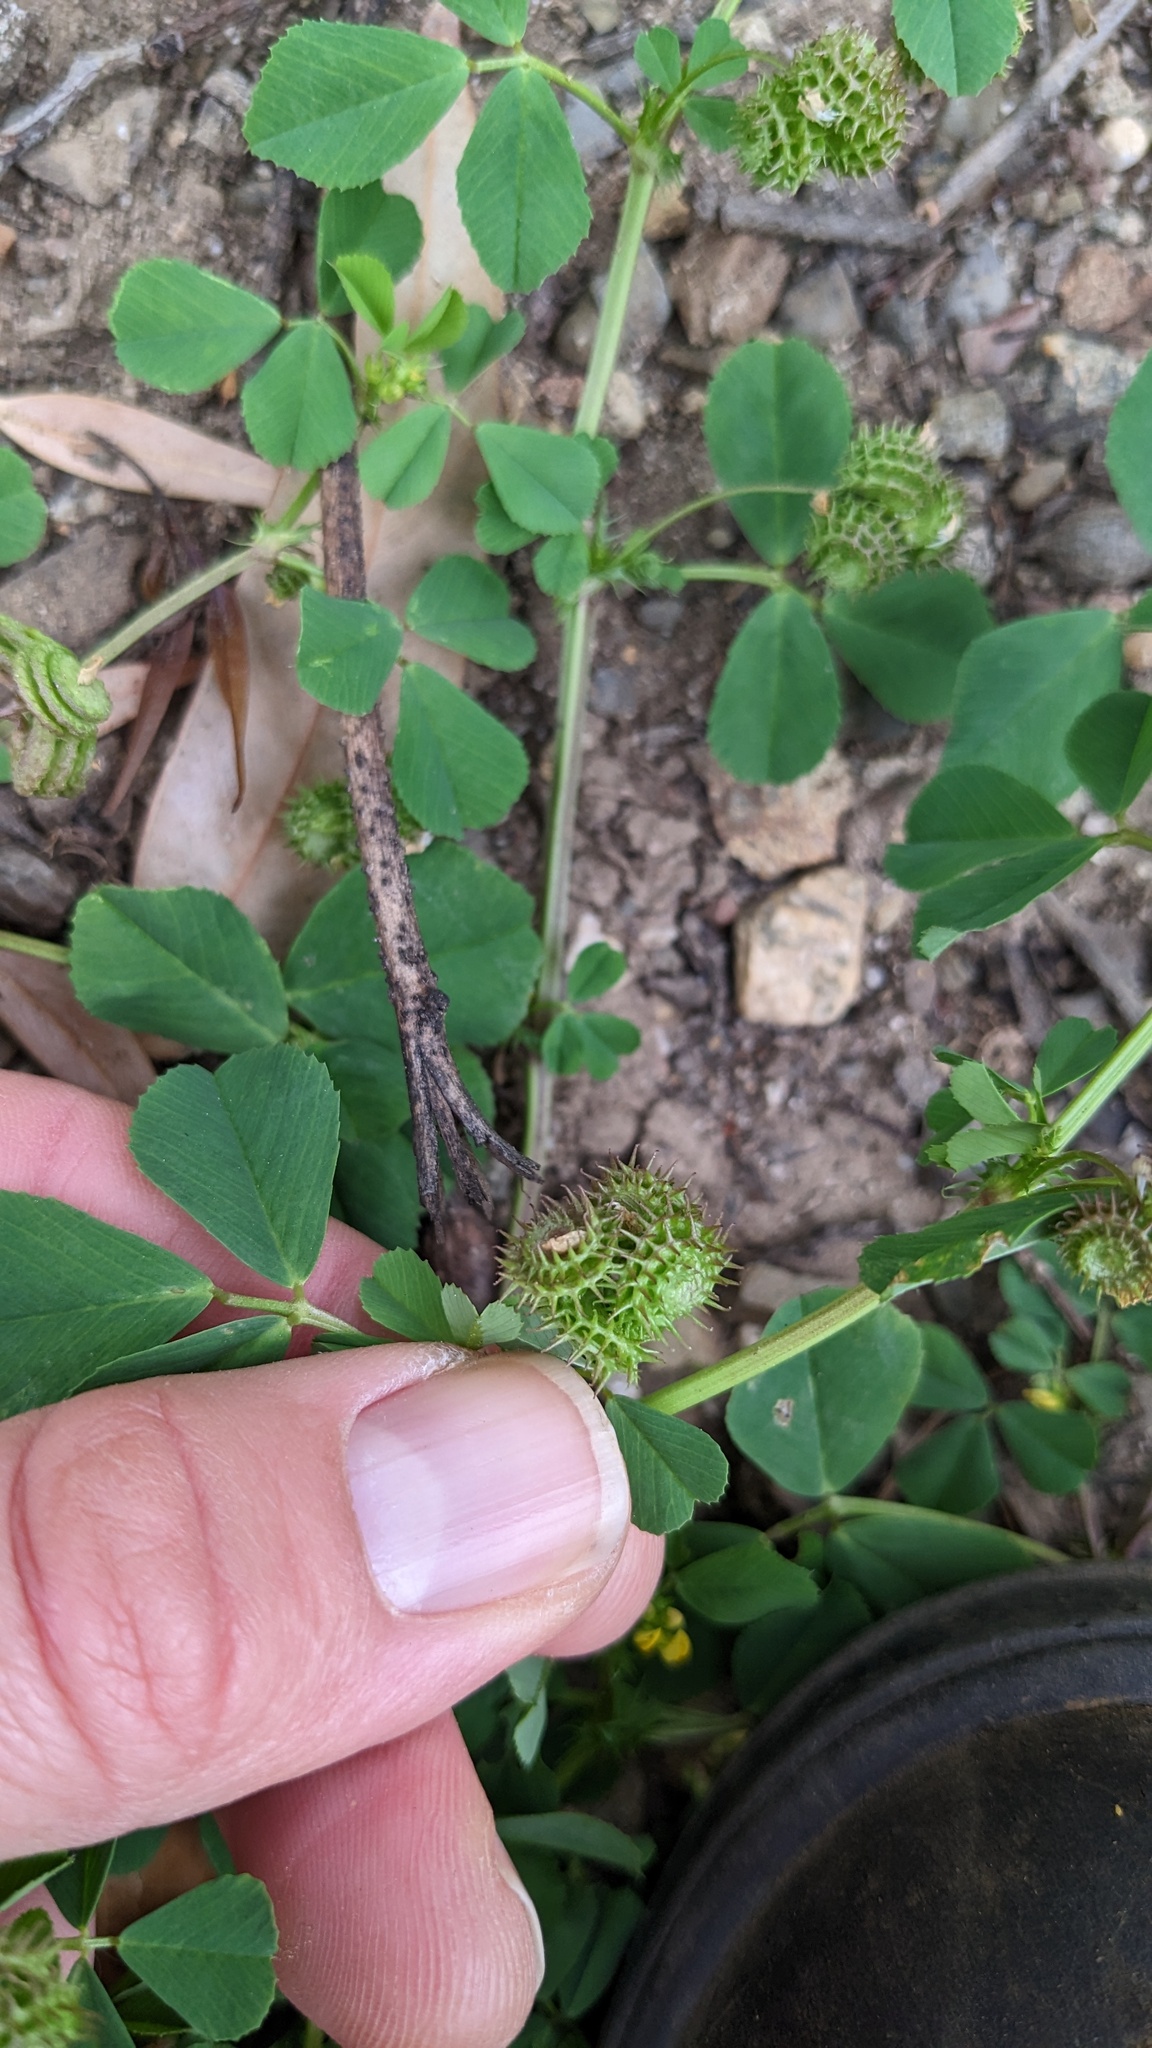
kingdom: Plantae
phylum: Tracheophyta
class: Magnoliopsida
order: Fabales
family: Fabaceae
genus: Medicago
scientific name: Medicago polymorpha
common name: Burclover
